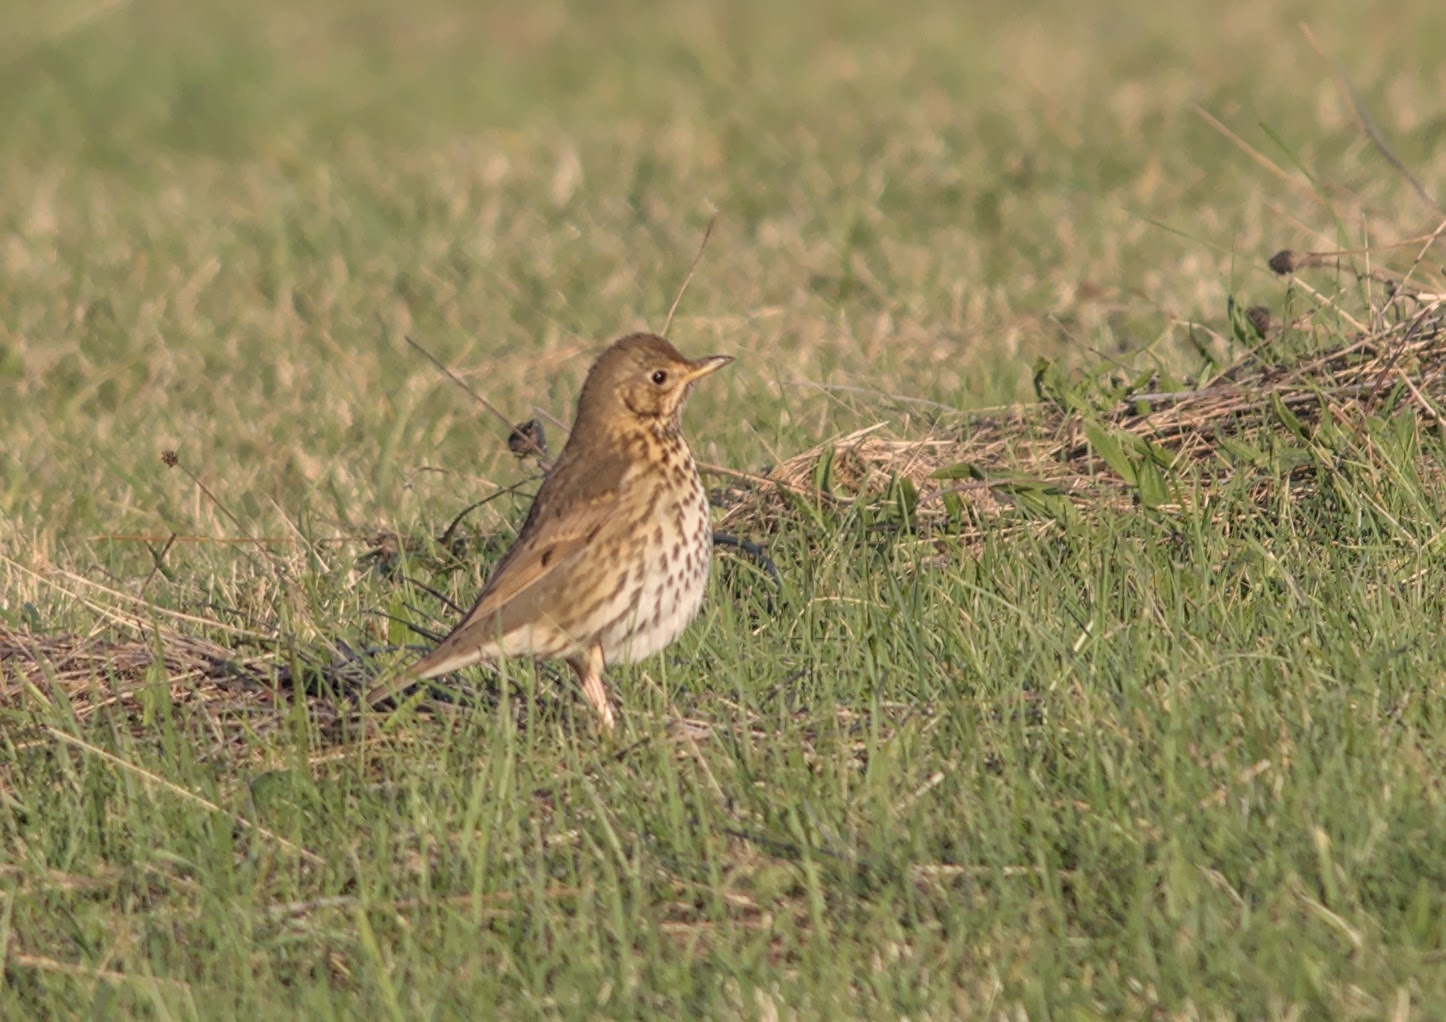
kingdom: Animalia
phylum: Chordata
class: Aves
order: Passeriformes
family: Turdidae
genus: Turdus
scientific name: Turdus philomelos
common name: Song thrush
